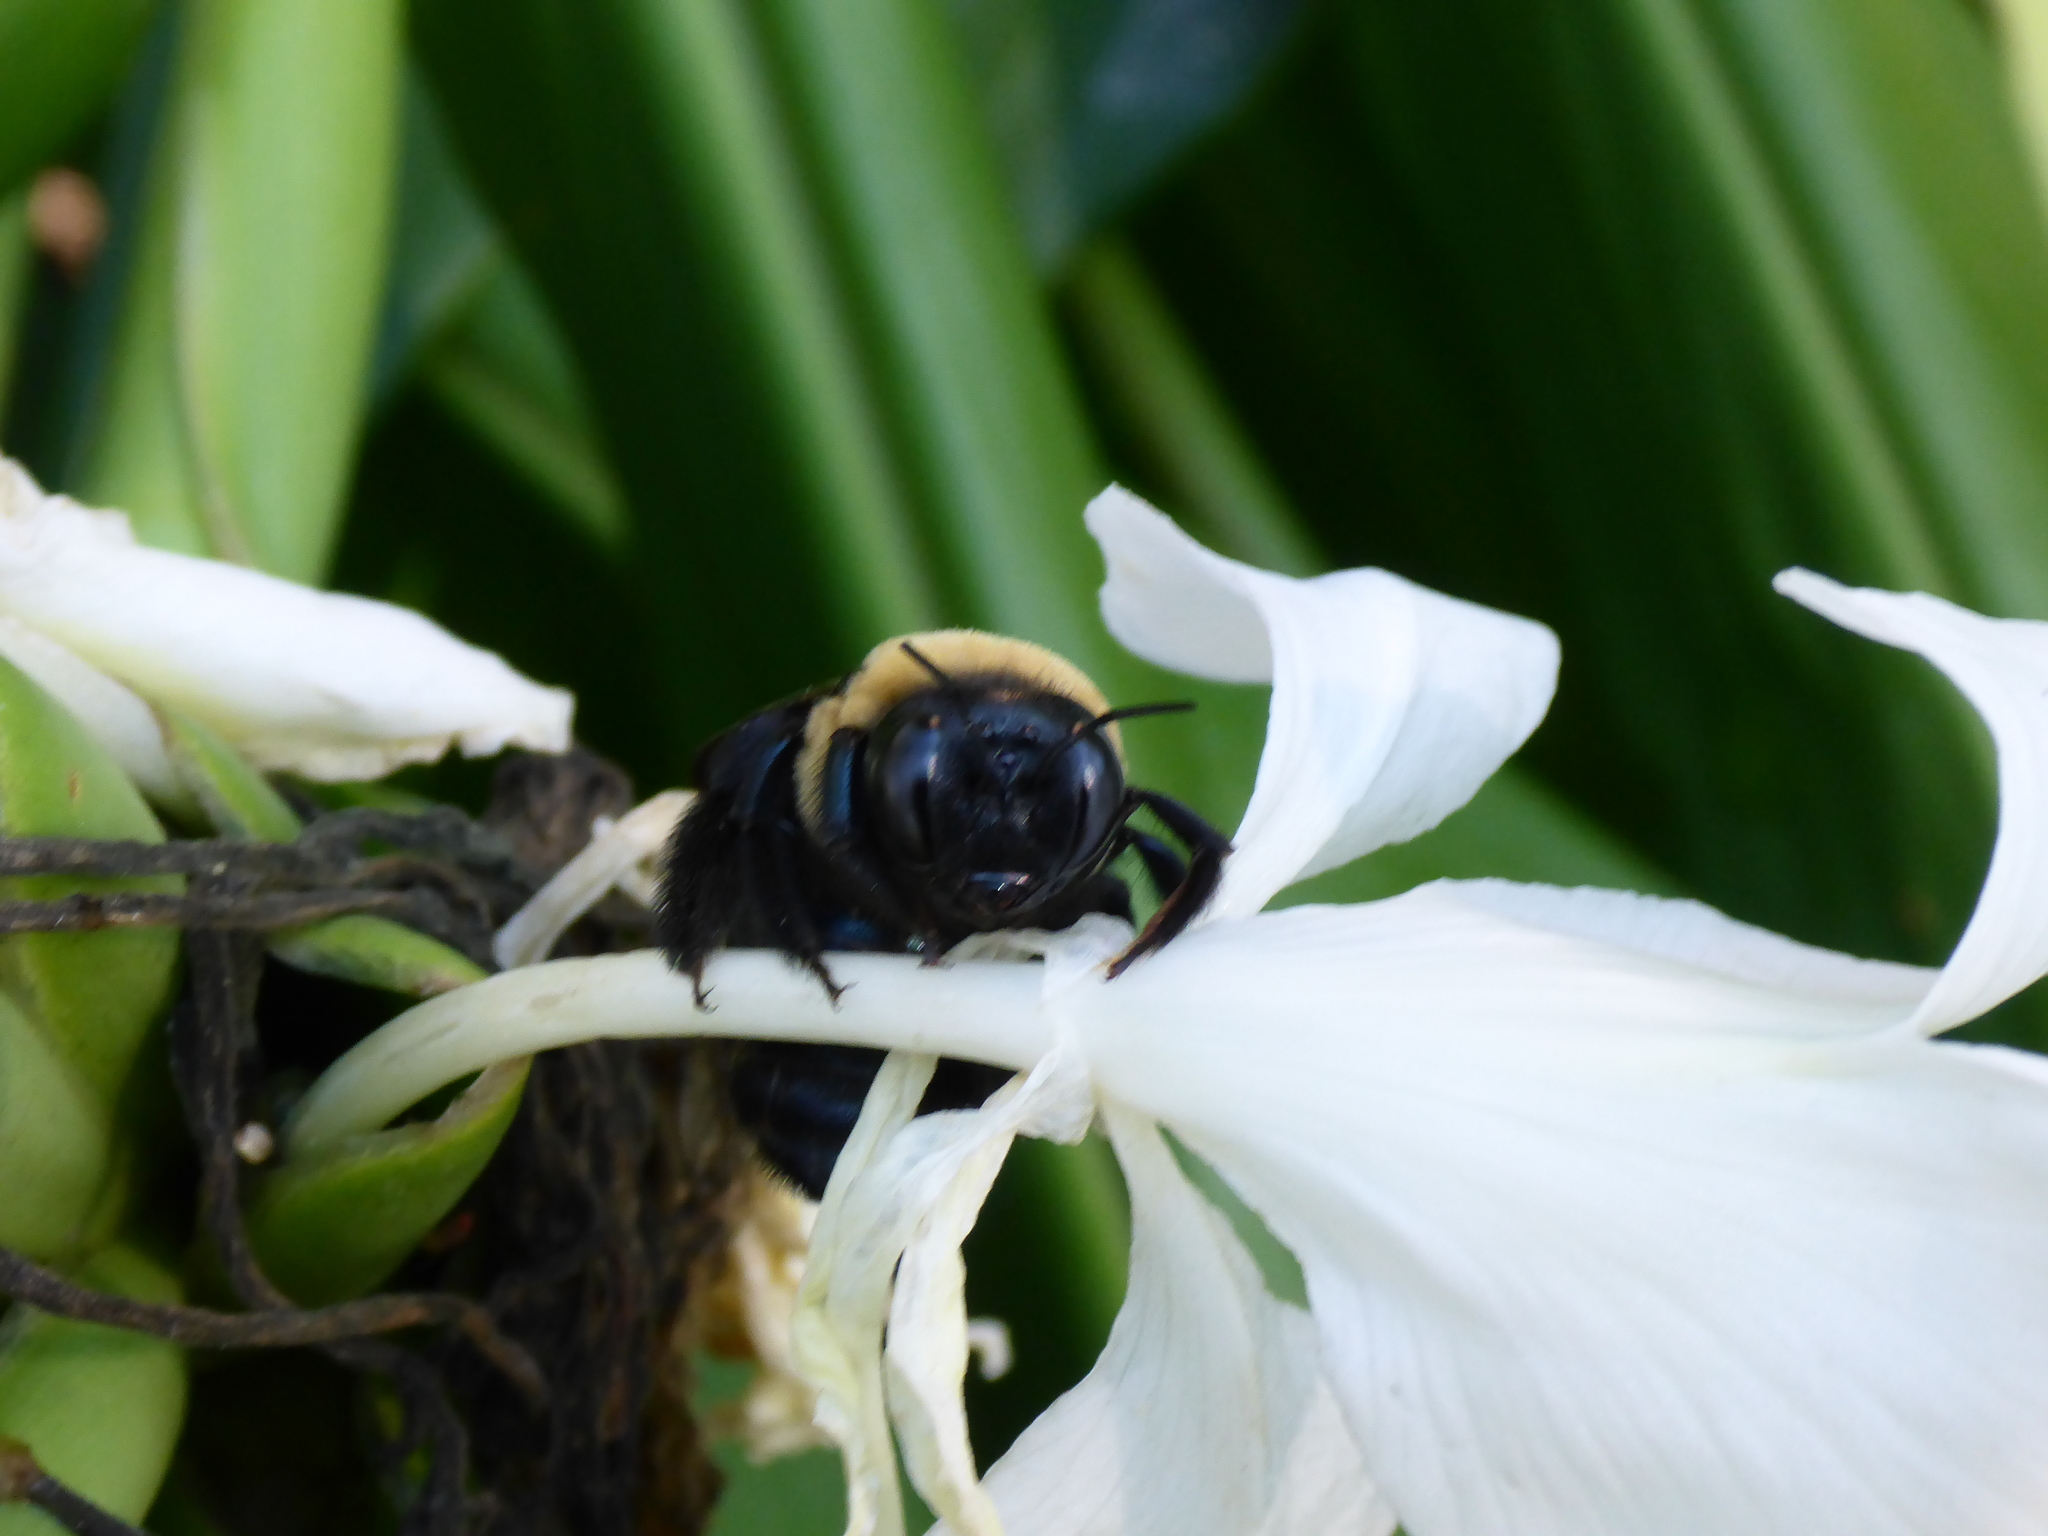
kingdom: Animalia
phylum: Arthropoda
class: Insecta
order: Hymenoptera
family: Apidae
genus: Xylocopa
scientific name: Xylocopa virginica
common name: Carpenter bee
